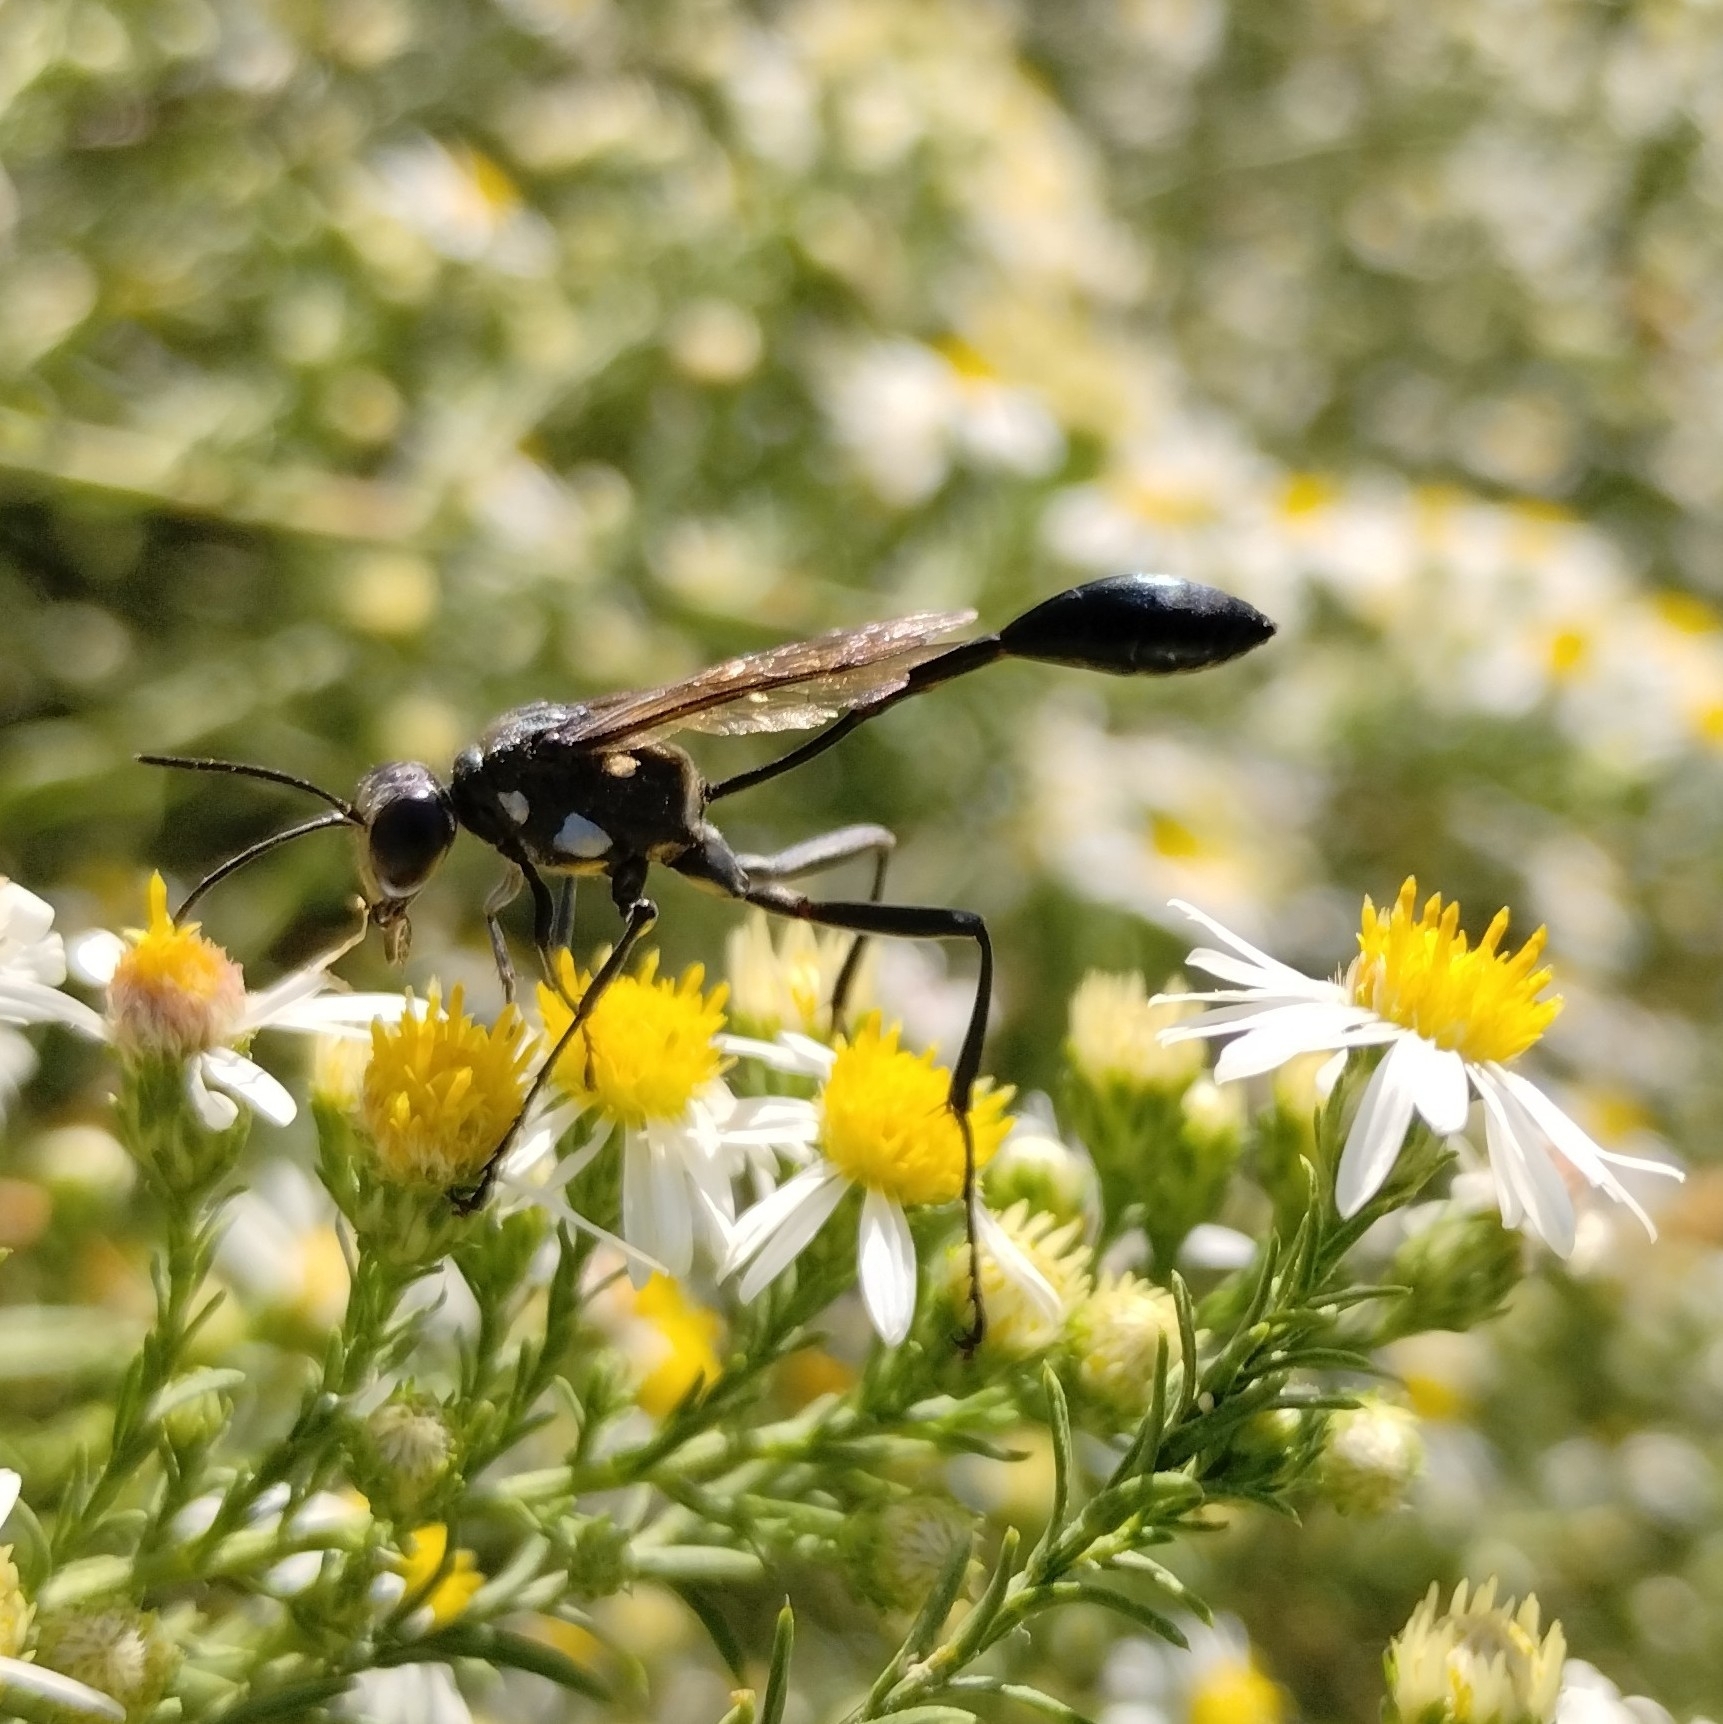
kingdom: Animalia
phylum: Arthropoda
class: Insecta
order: Hymenoptera
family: Sphecidae
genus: Eremnophila
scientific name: Eremnophila aureonotata
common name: Gold-marked thread-waisted wasp
